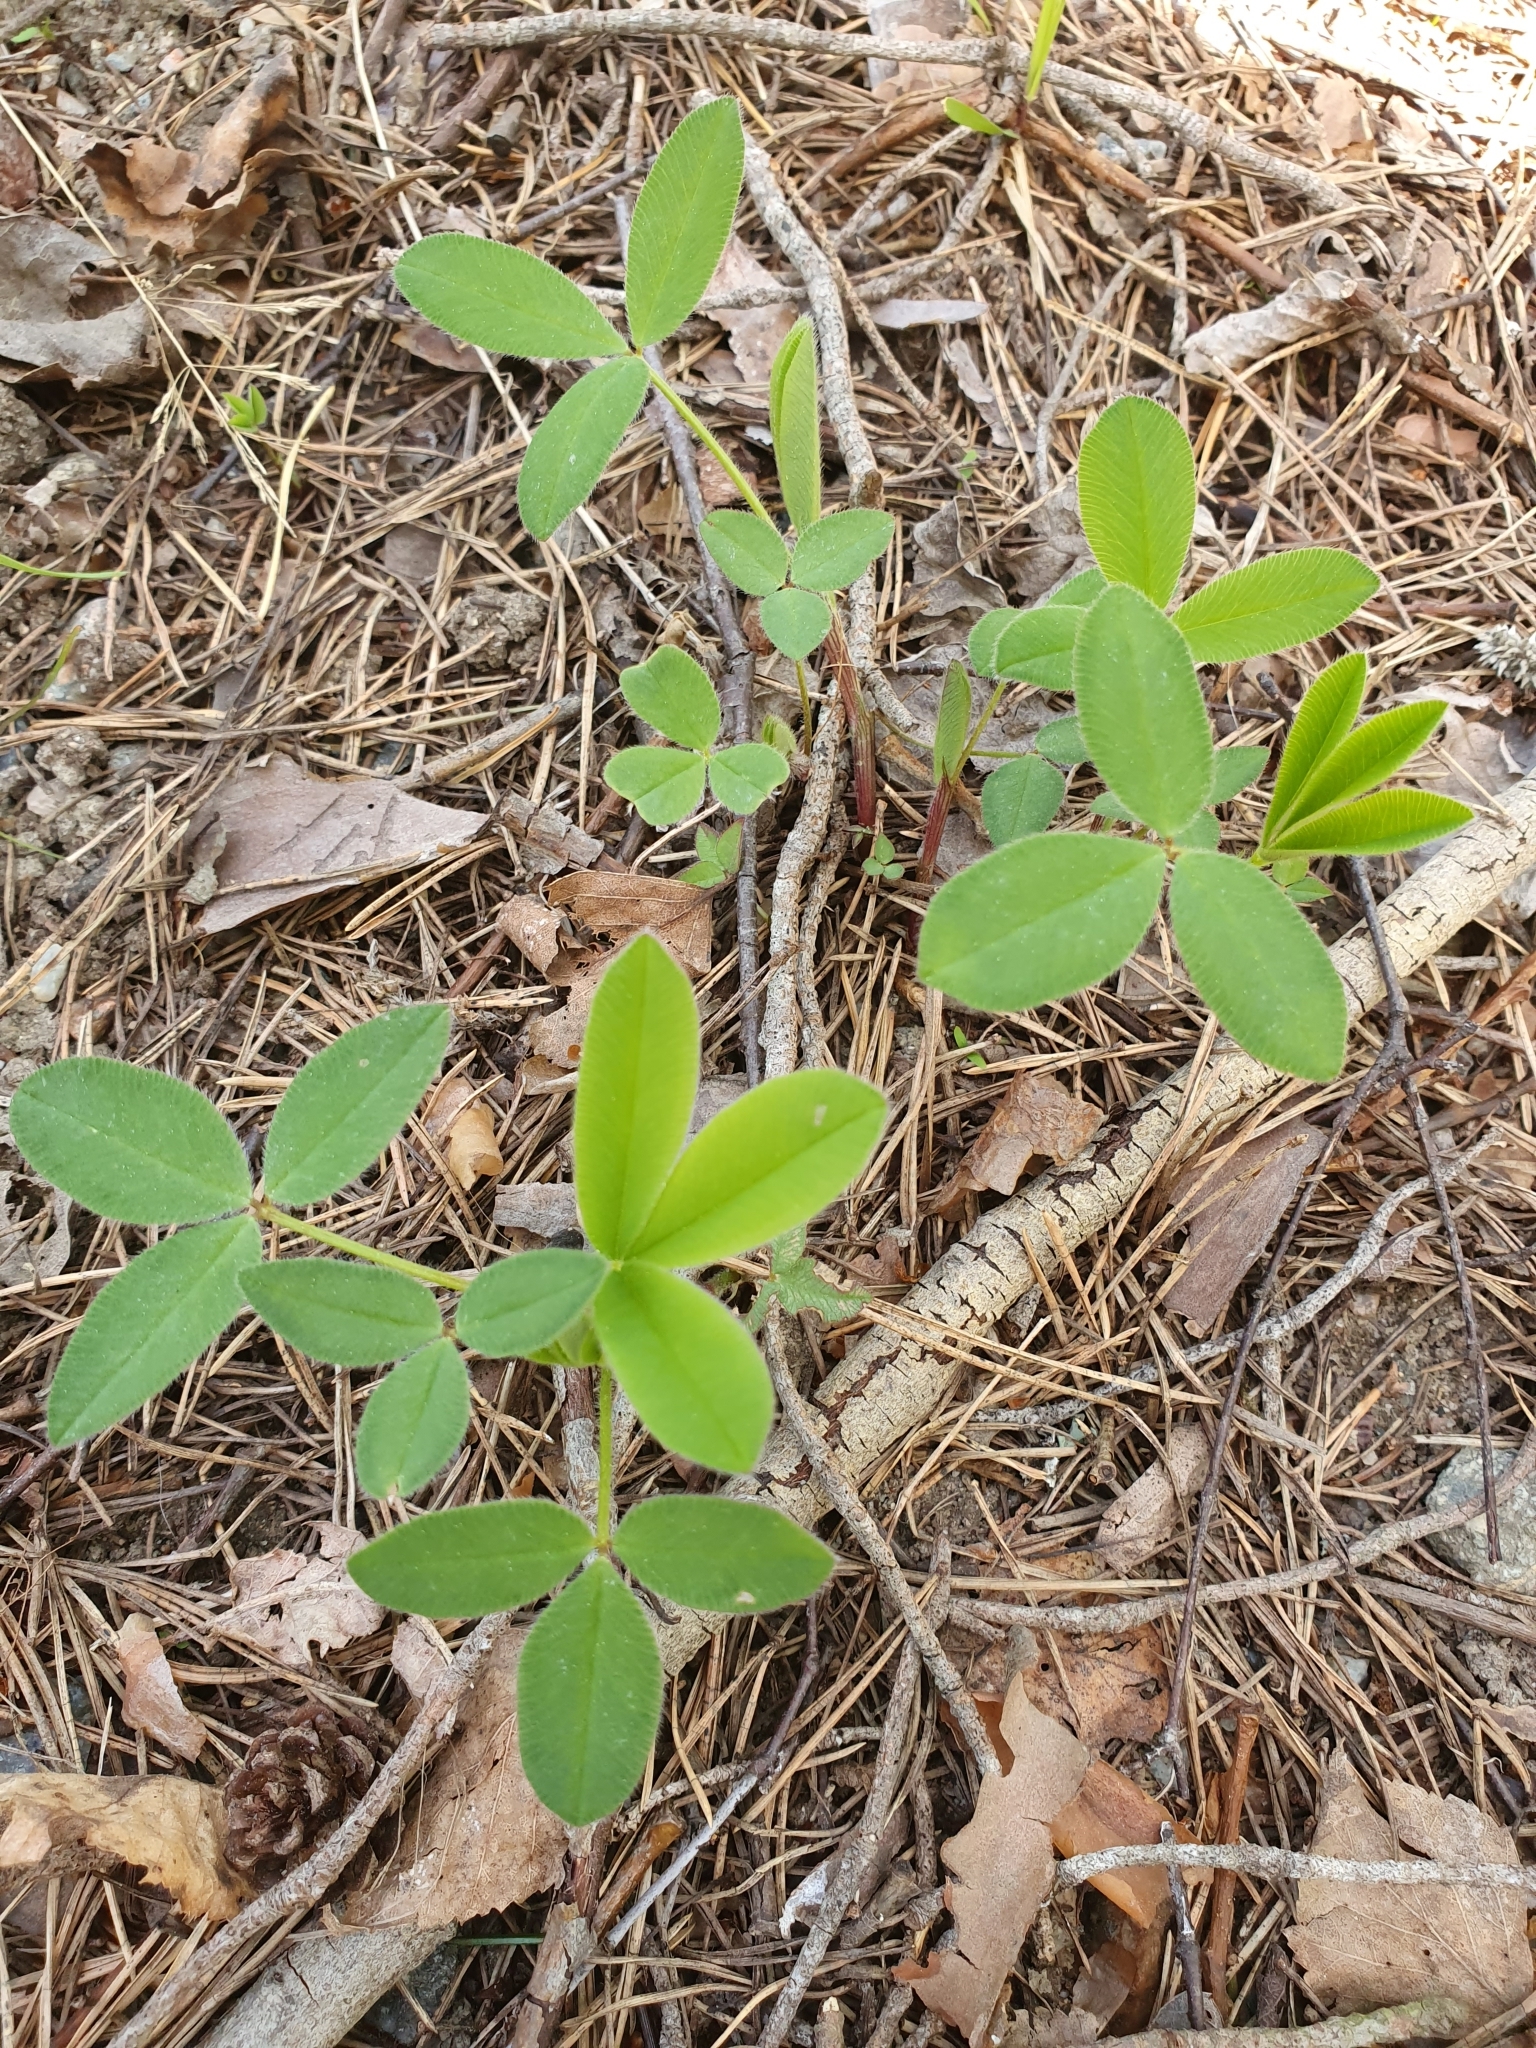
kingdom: Plantae
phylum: Tracheophyta
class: Magnoliopsida
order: Fabales
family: Fabaceae
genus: Trifolium
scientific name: Trifolium medium
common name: Zigzag clover
